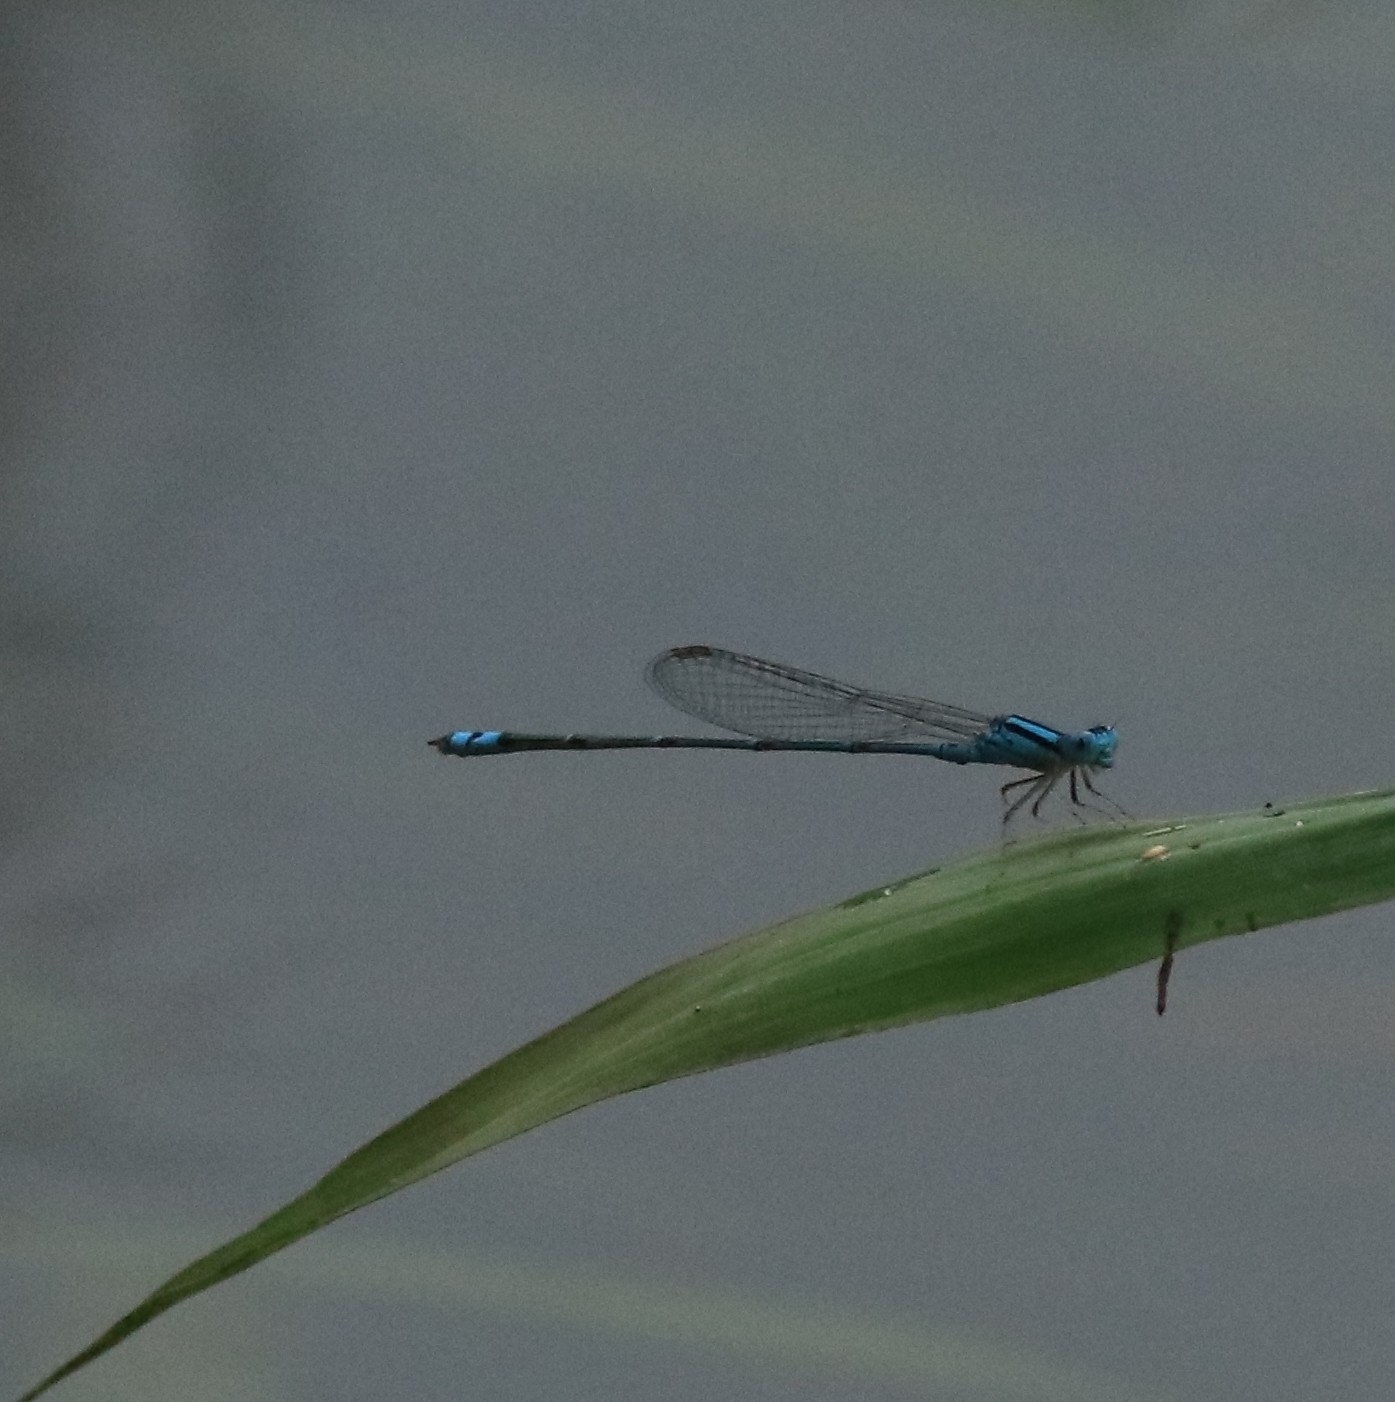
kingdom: Animalia
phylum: Arthropoda
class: Insecta
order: Odonata
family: Coenagrionidae
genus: Pseudagrion
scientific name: Pseudagrion microcephalum
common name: Blue riverdamsel
